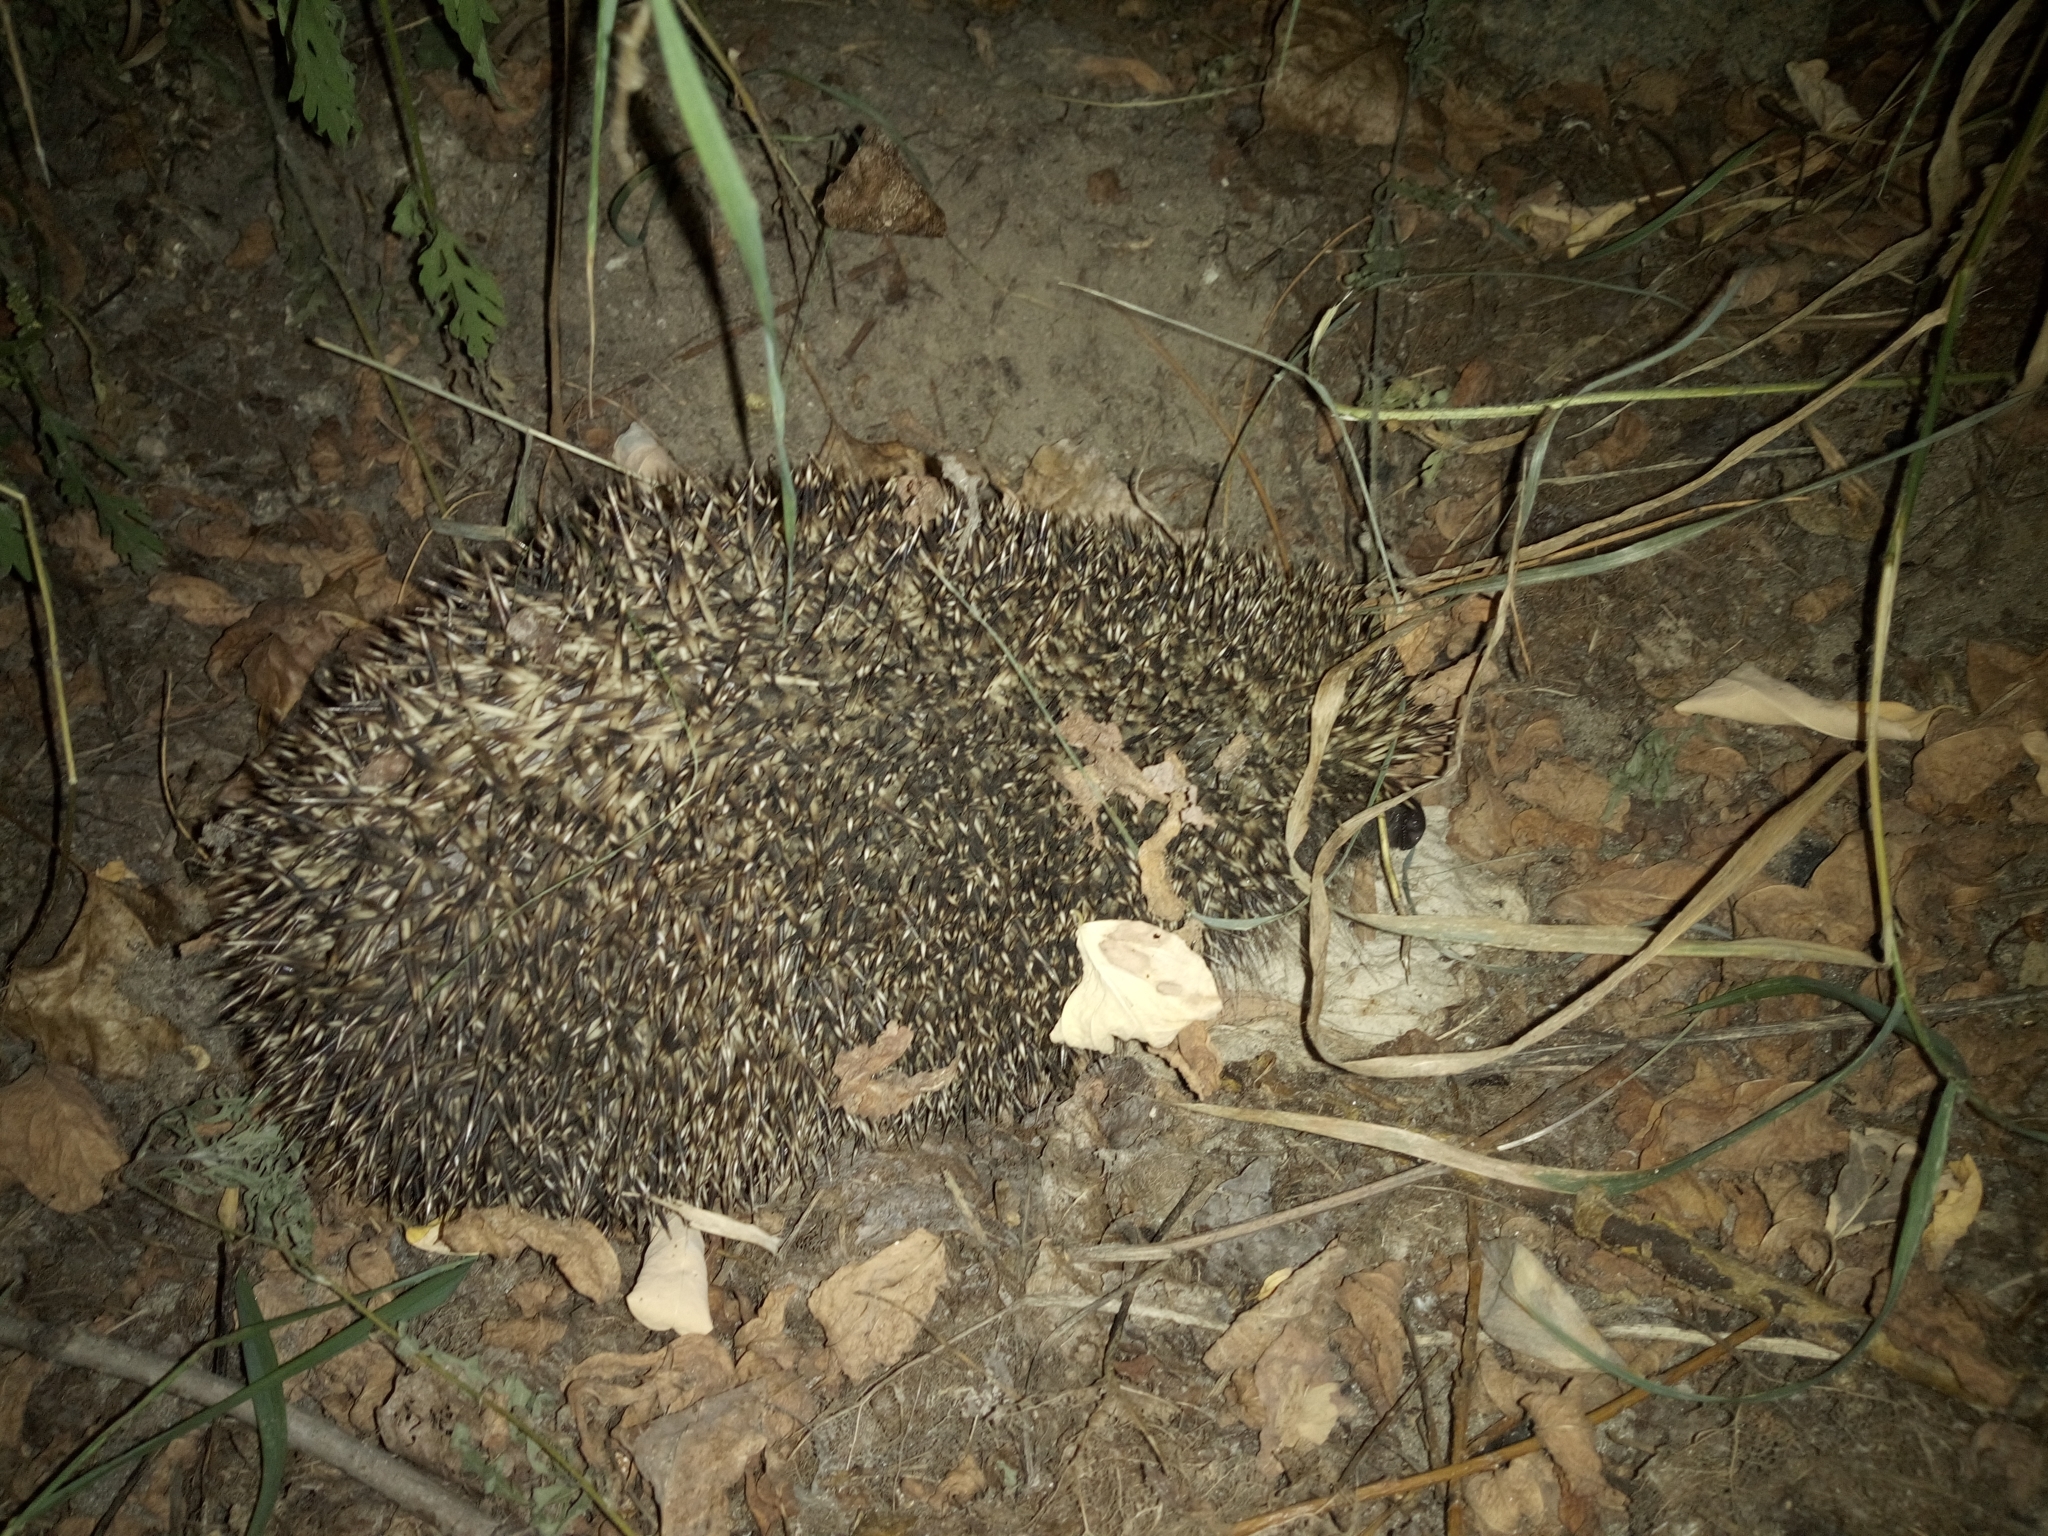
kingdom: Animalia
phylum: Chordata
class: Mammalia
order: Erinaceomorpha
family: Erinaceidae
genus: Erinaceus
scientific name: Erinaceus roumanicus
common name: Northern white-breasted hedgehog
